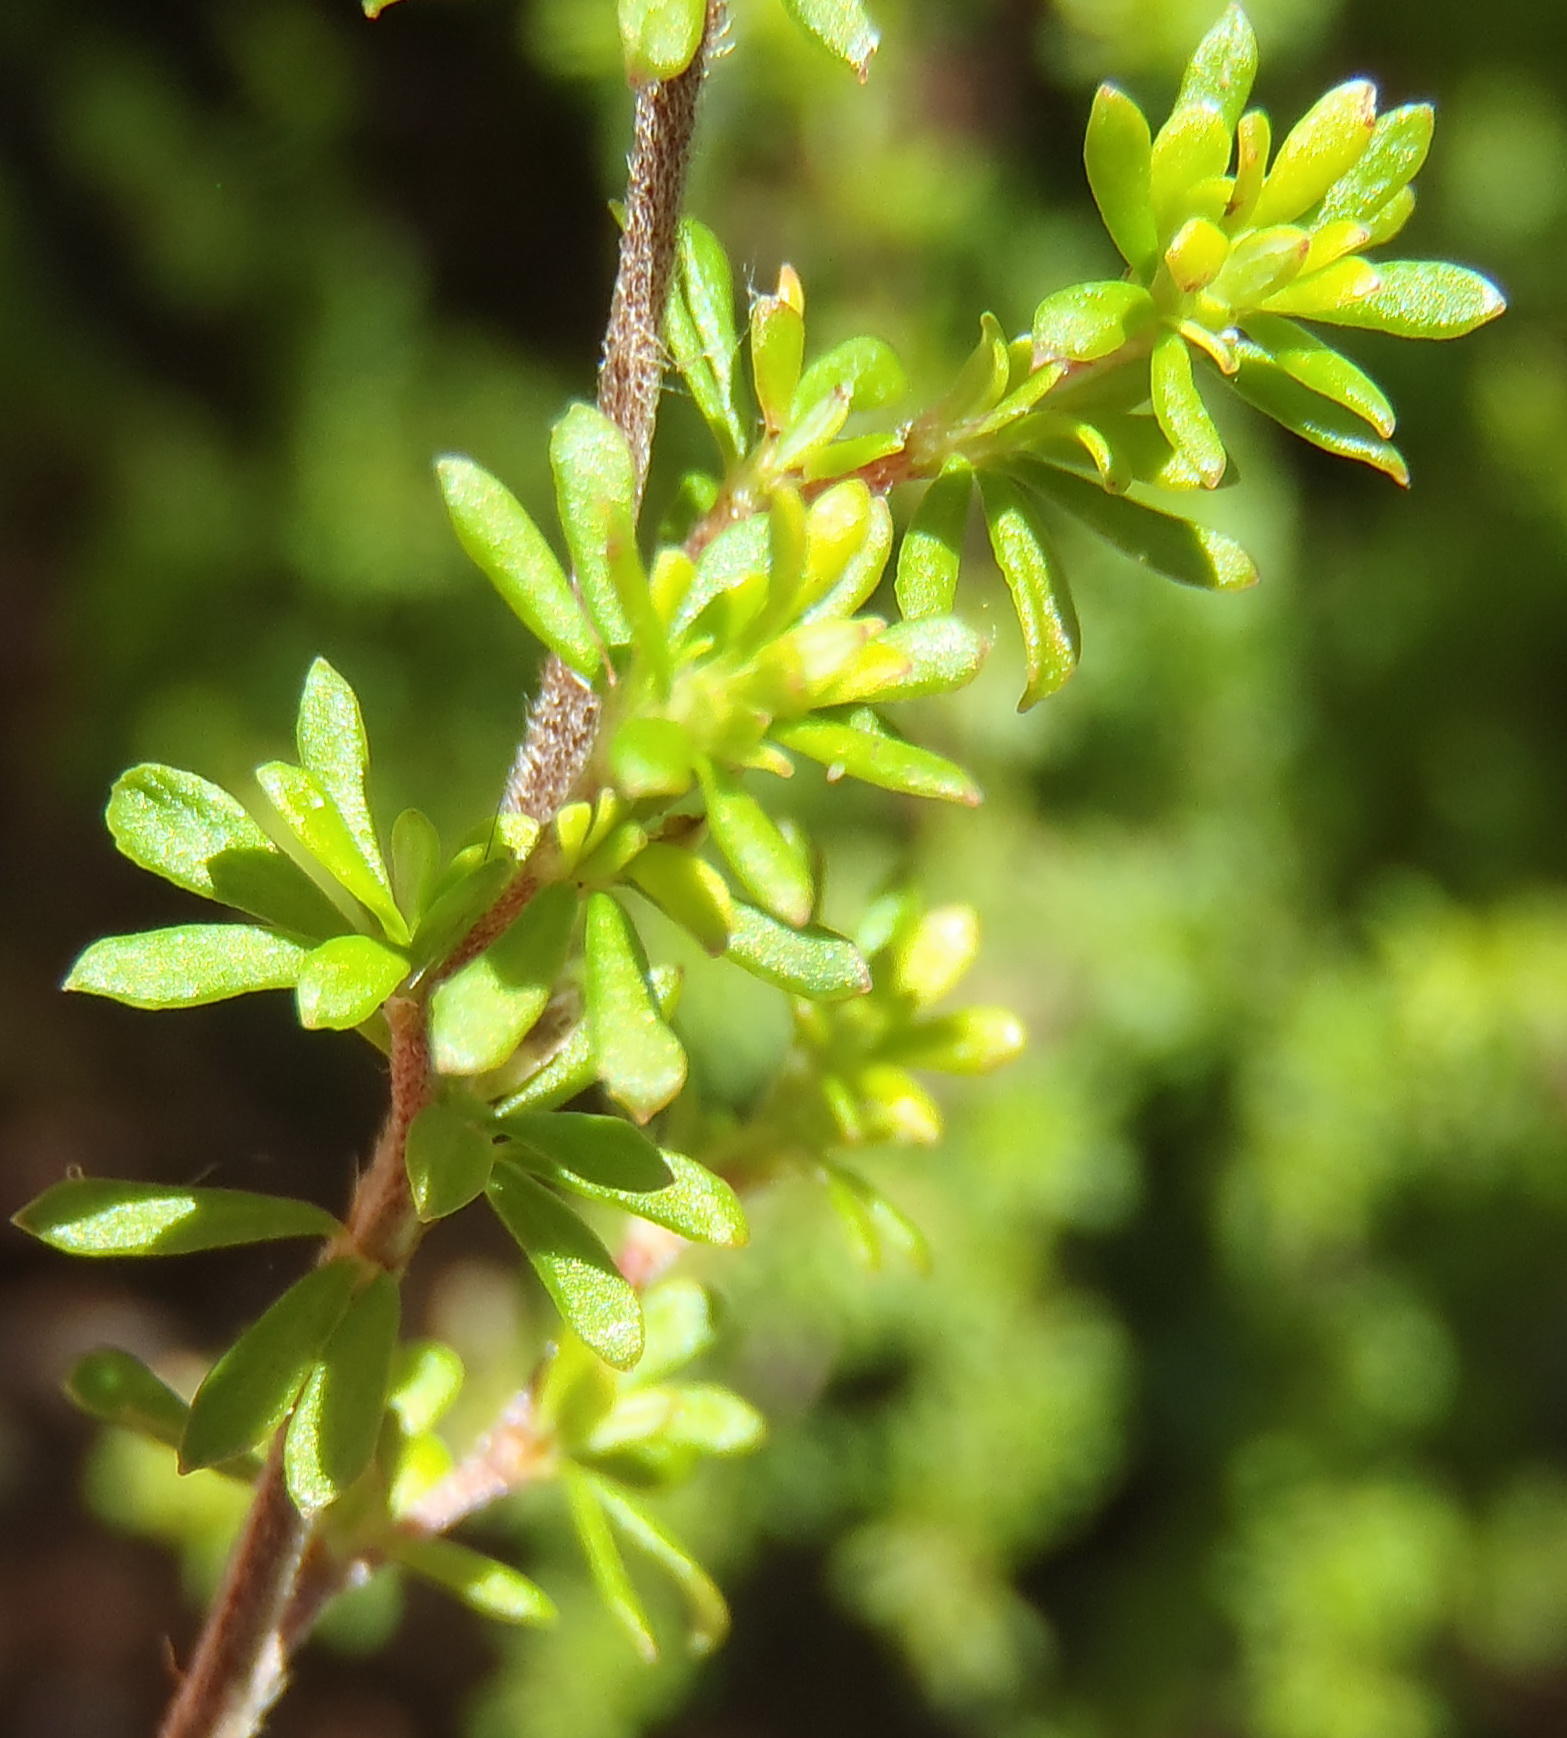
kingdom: Plantae
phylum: Tracheophyta
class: Magnoliopsida
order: Rosales
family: Rosaceae
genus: Cliffortia
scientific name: Cliffortia serpyllifolia
